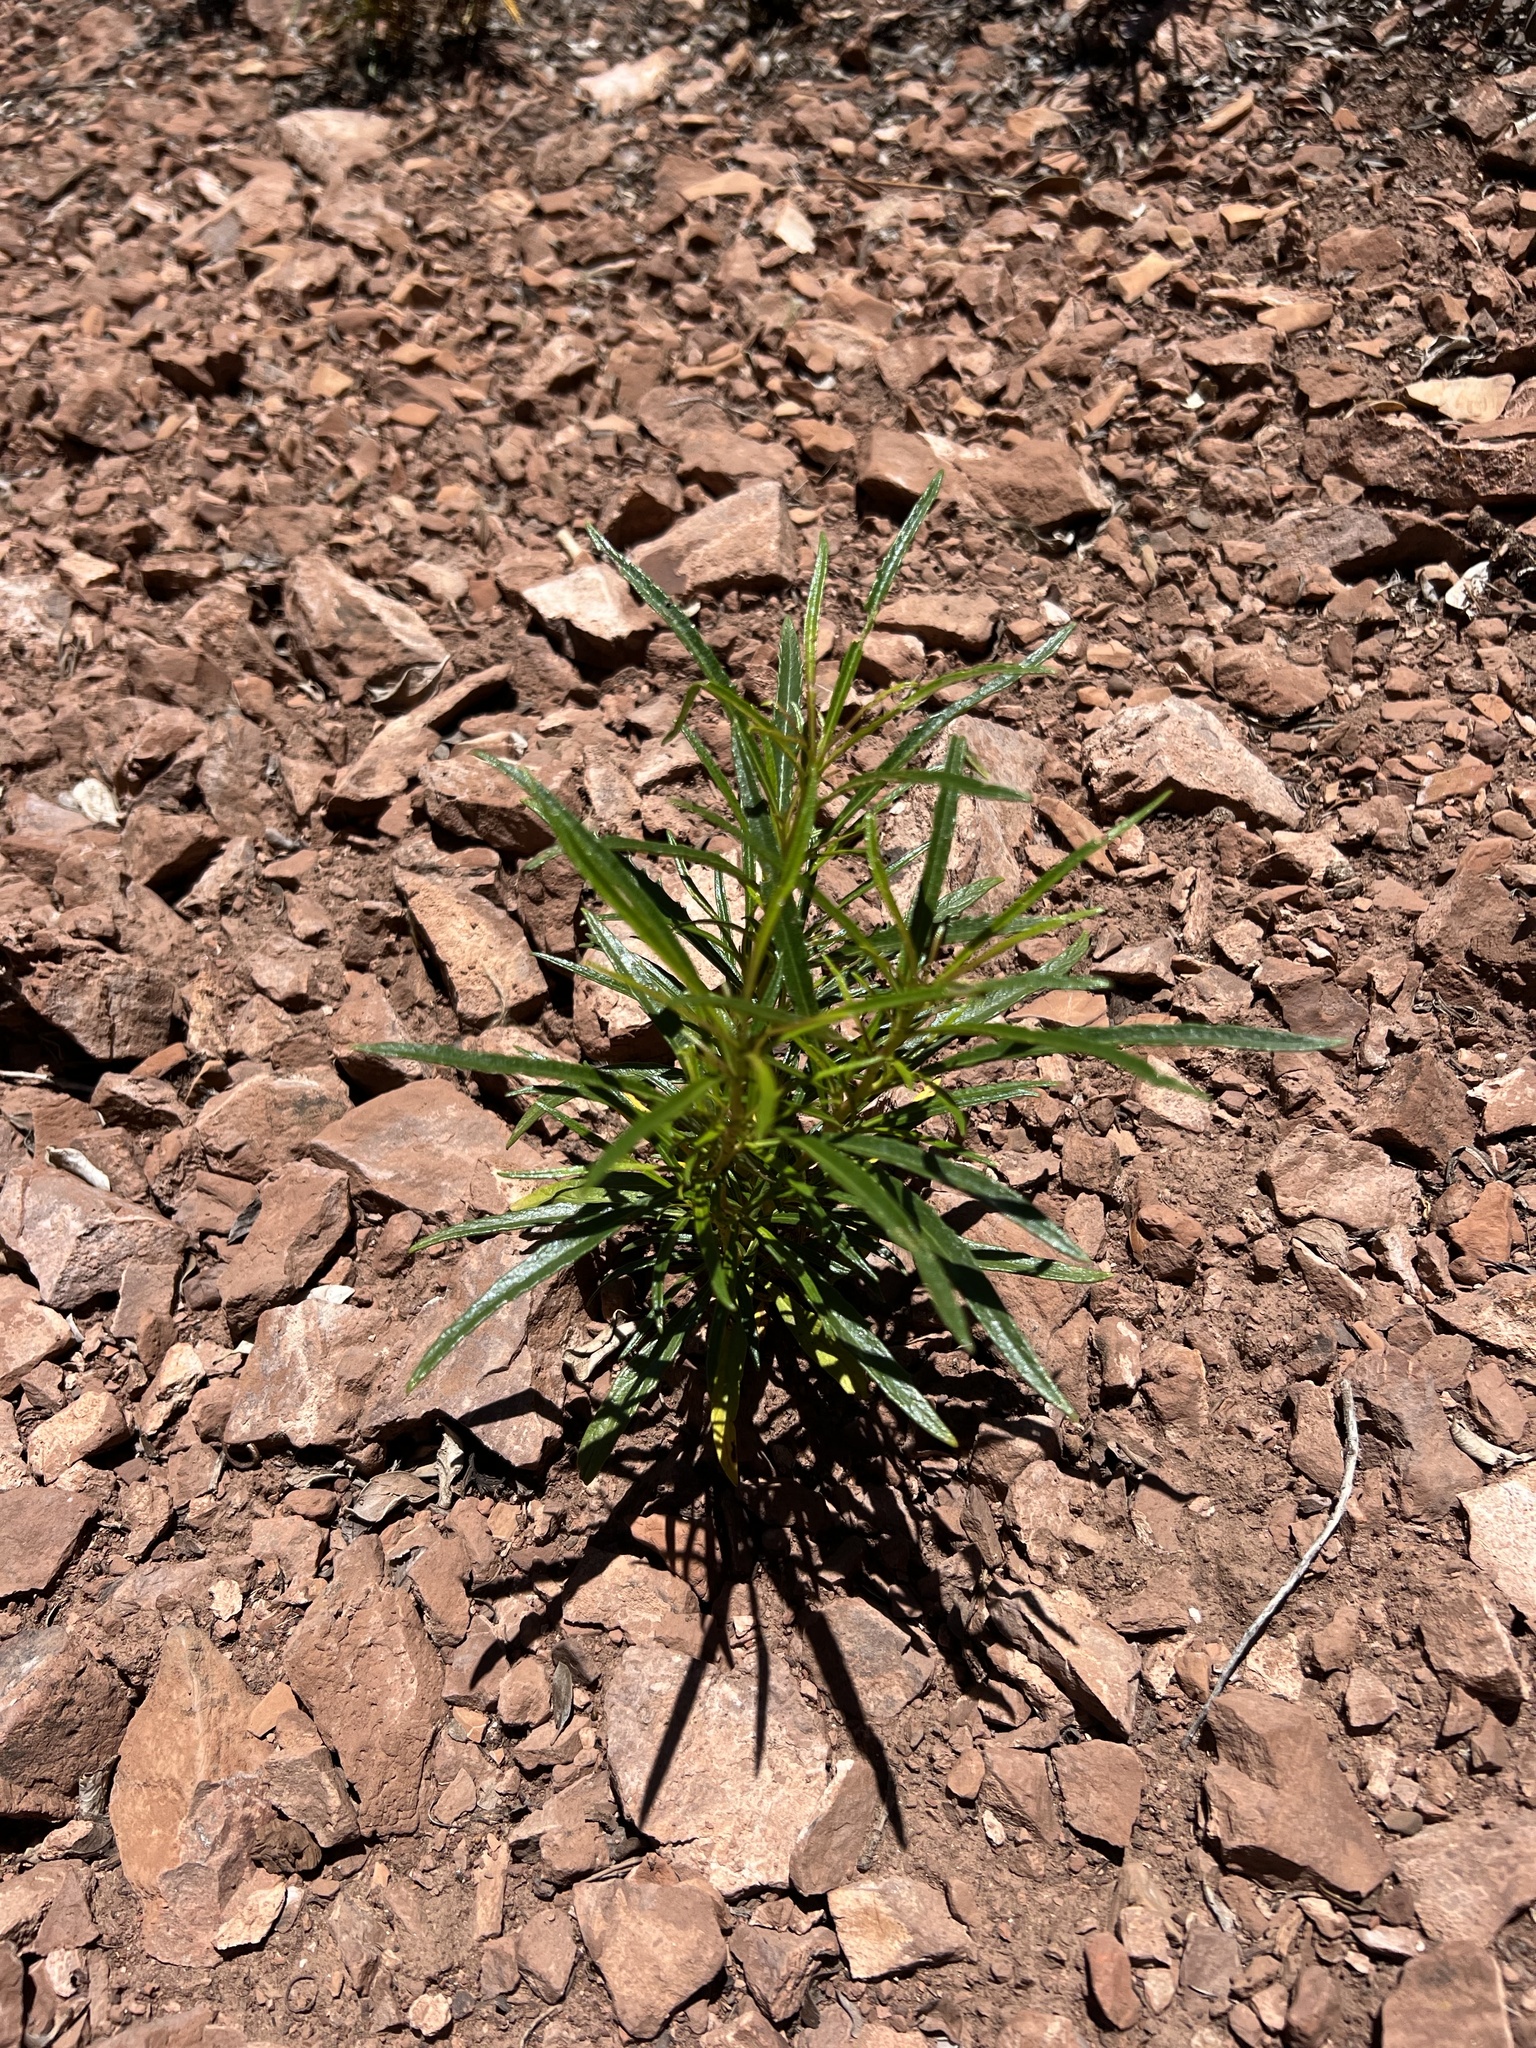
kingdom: Plantae
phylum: Tracheophyta
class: Magnoliopsida
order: Boraginales
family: Namaceae
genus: Eriodictyon
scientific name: Eriodictyon angustifolium
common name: Narrow-leaf yerba santa
